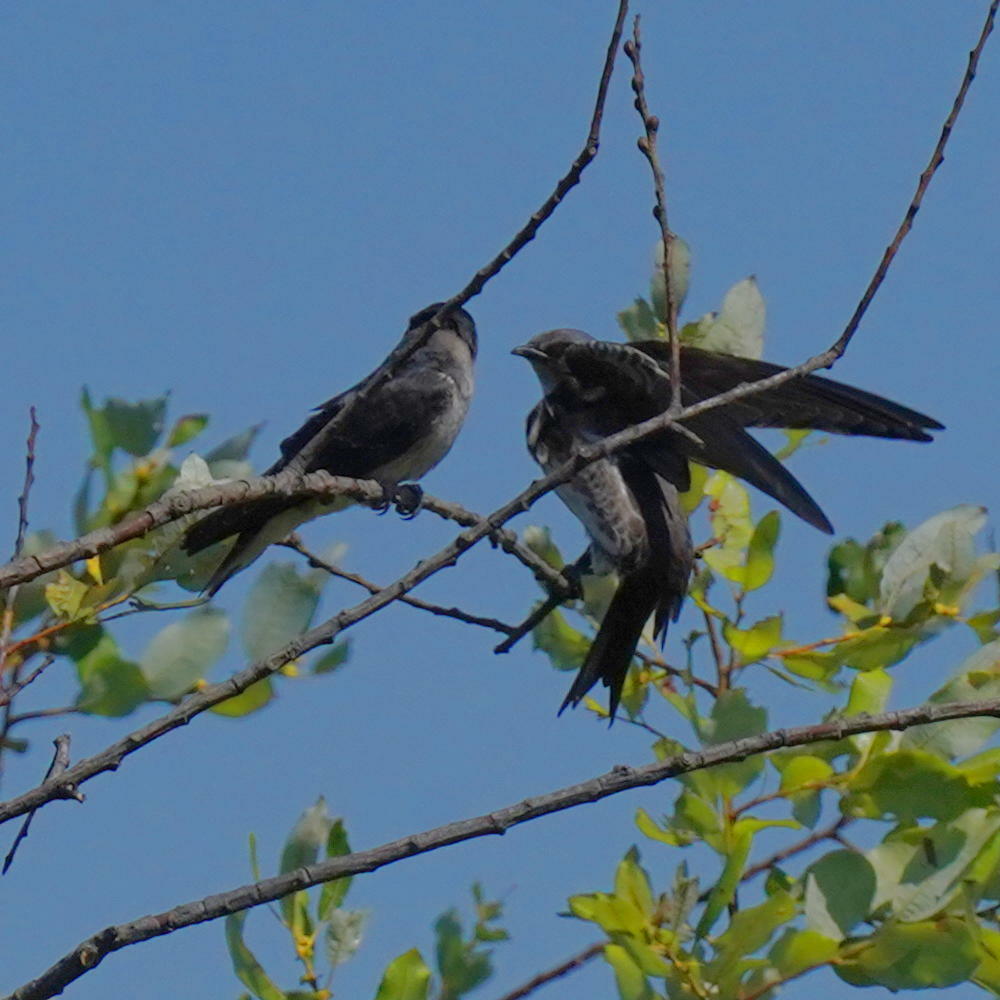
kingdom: Animalia
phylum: Chordata
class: Aves
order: Passeriformes
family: Hirundinidae
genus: Progne
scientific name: Progne subis
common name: Purple martin
